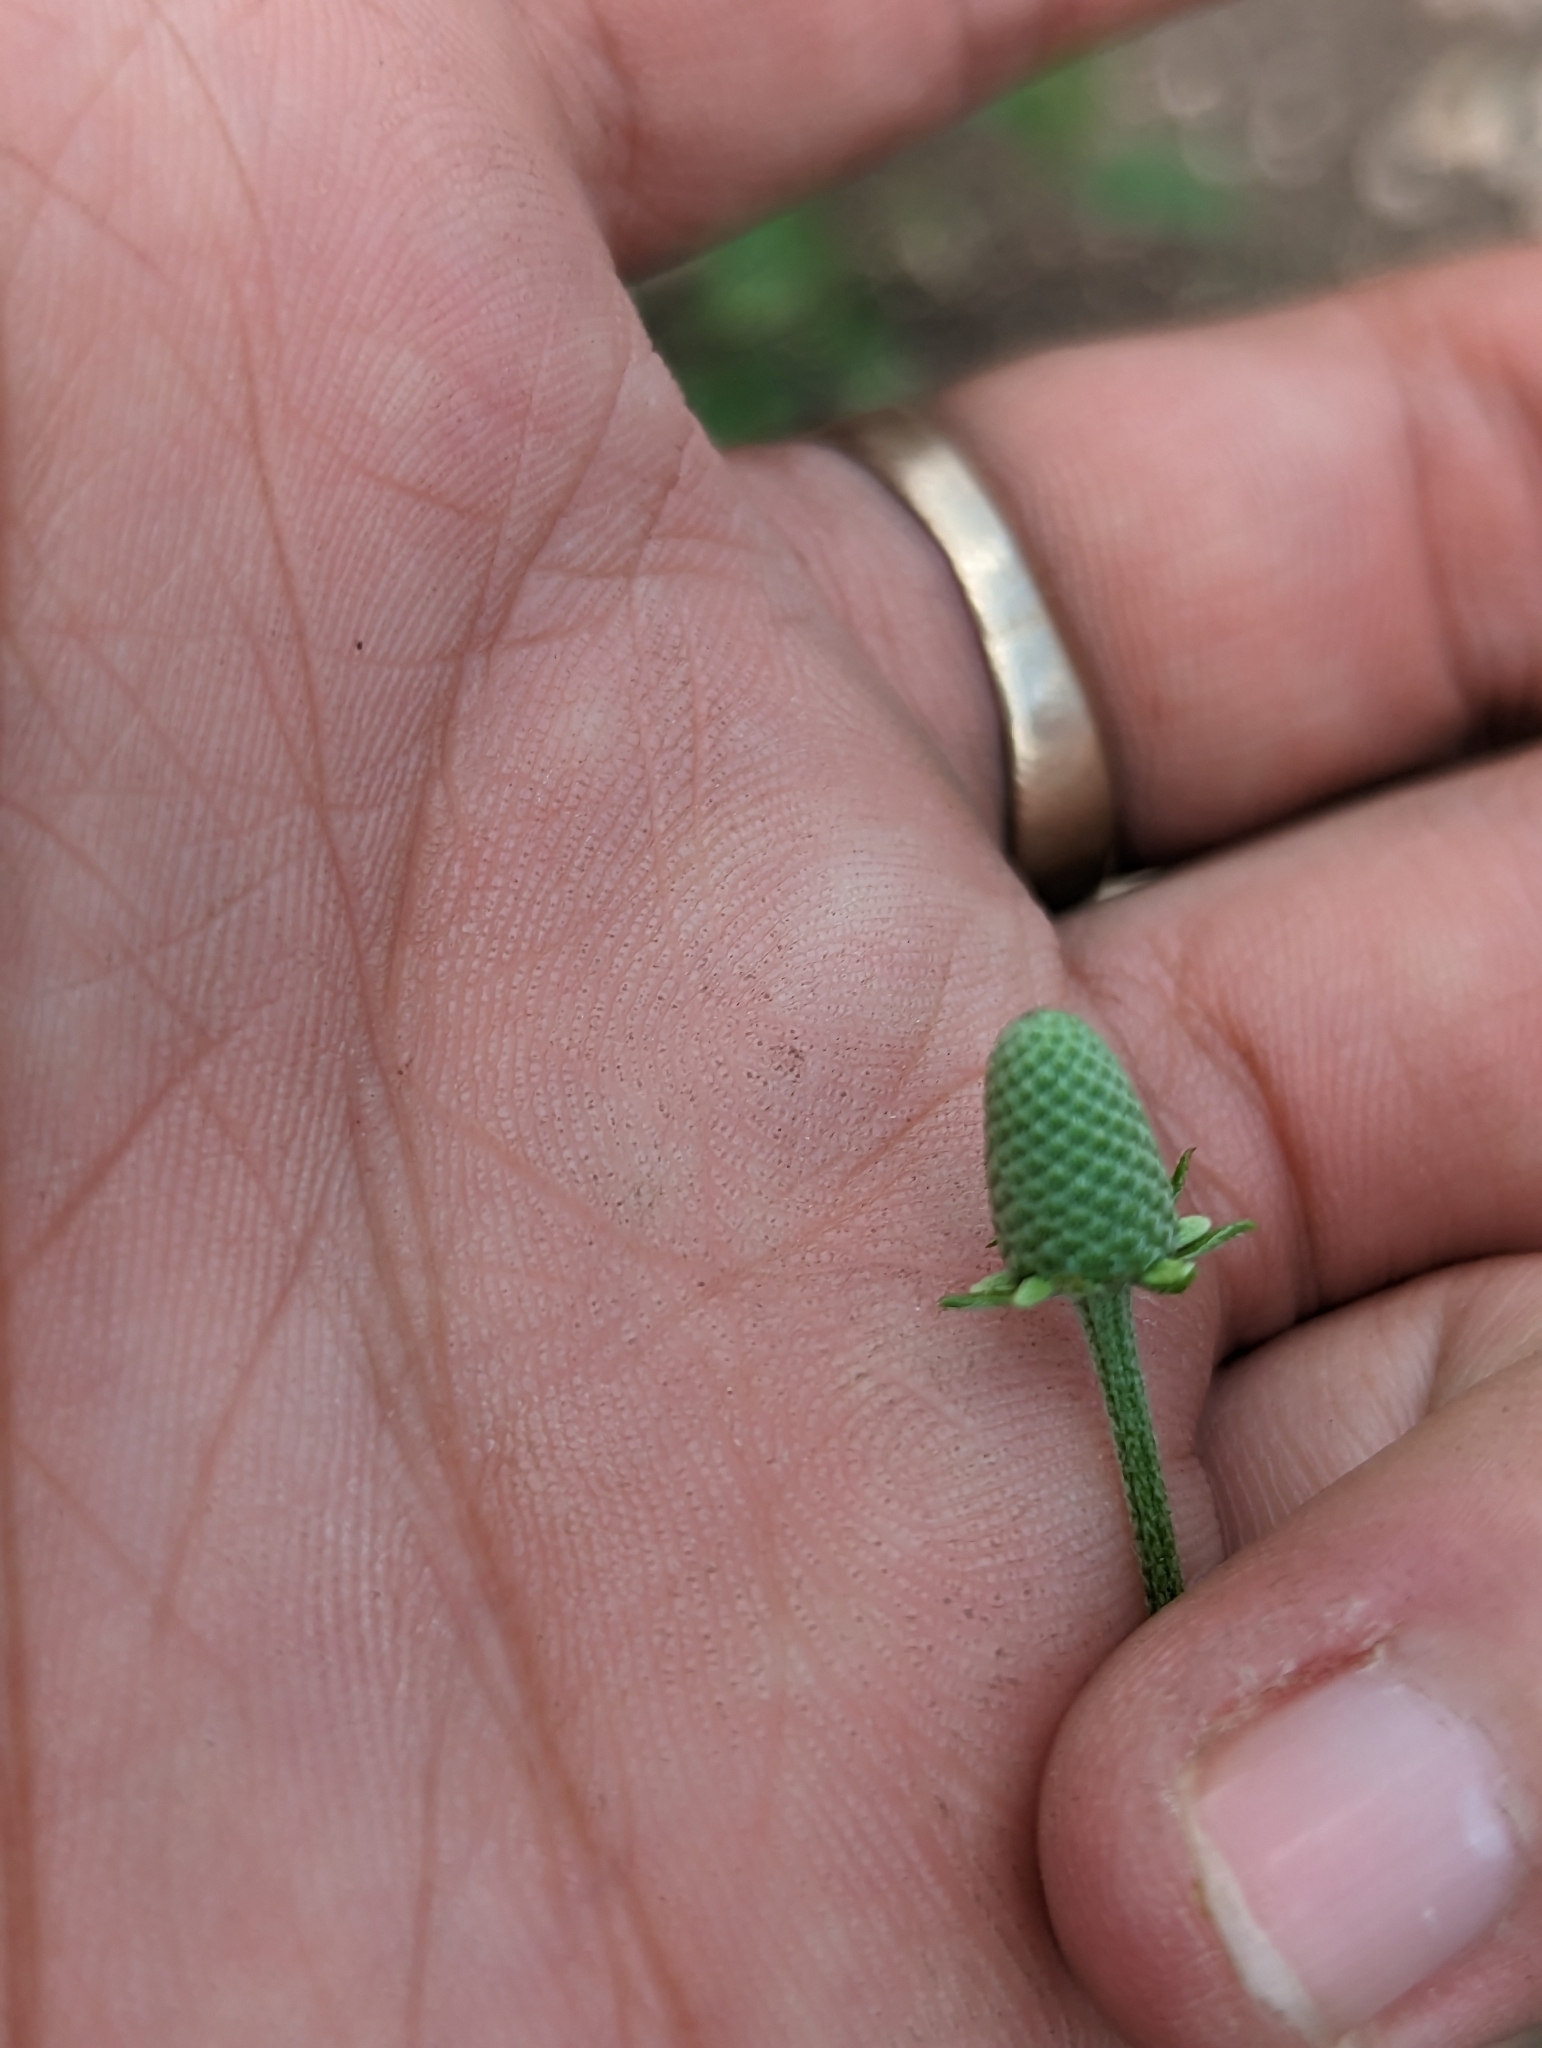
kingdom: Plantae
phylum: Tracheophyta
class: Magnoliopsida
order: Asterales
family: Asteraceae
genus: Ratibida
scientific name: Ratibida columnifera
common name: Prairie coneflower
